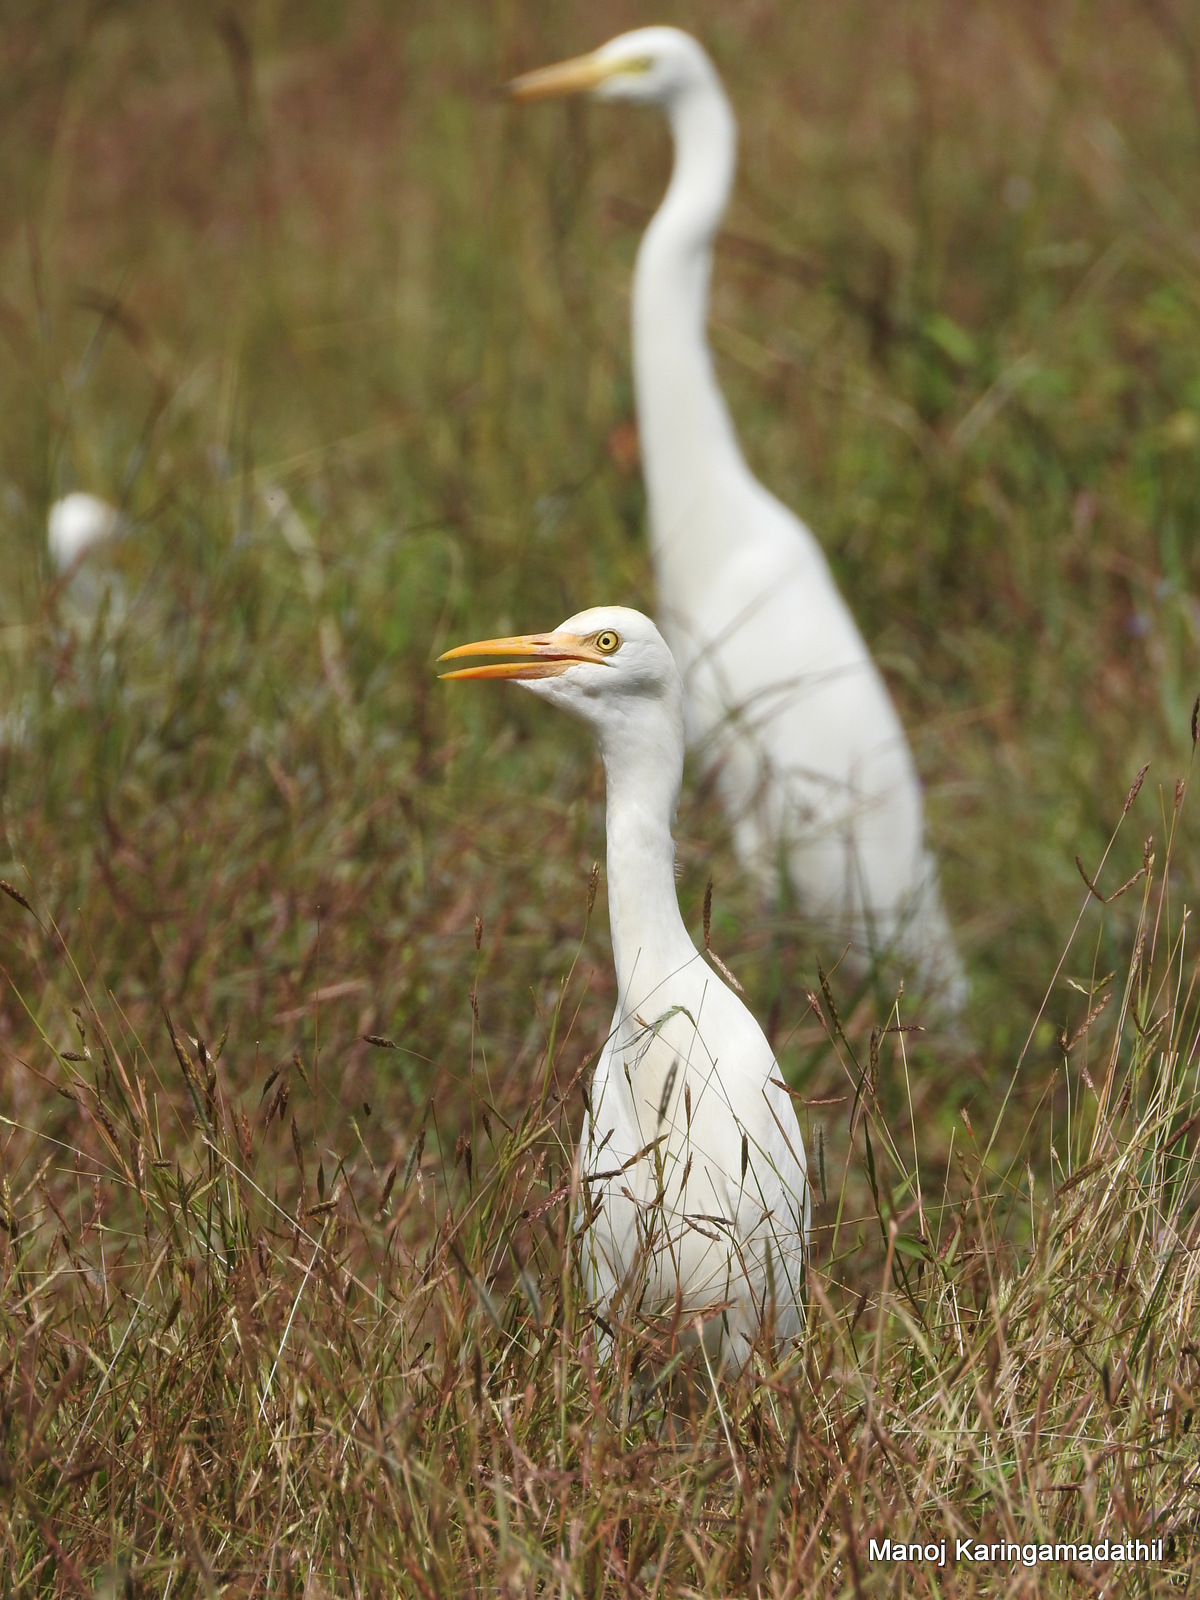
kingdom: Animalia
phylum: Chordata
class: Aves
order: Pelecaniformes
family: Ardeidae
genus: Bubulcus
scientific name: Bubulcus coromandus
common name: Eastern cattle egret
